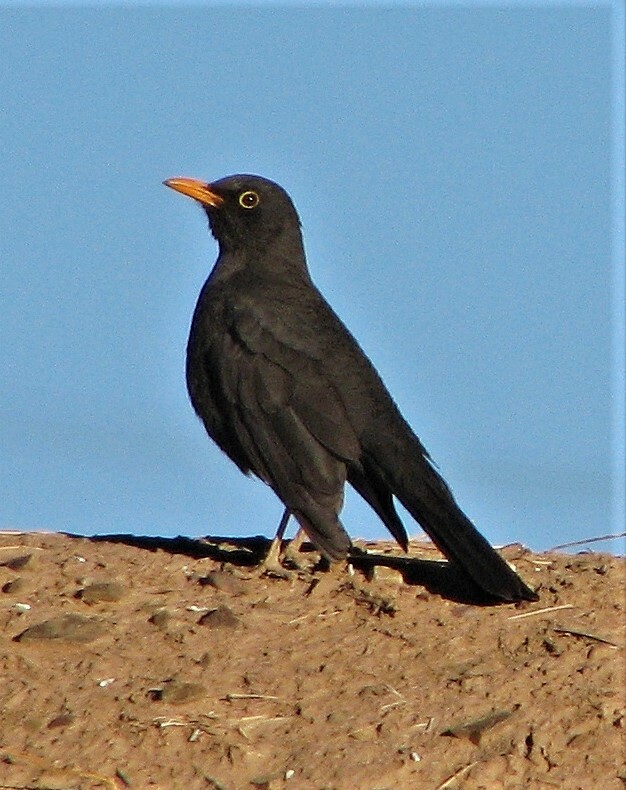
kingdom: Animalia
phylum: Chordata
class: Aves
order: Passeriformes
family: Turdidae
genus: Turdus
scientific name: Turdus chiguanco
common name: Chiguanco thrush
